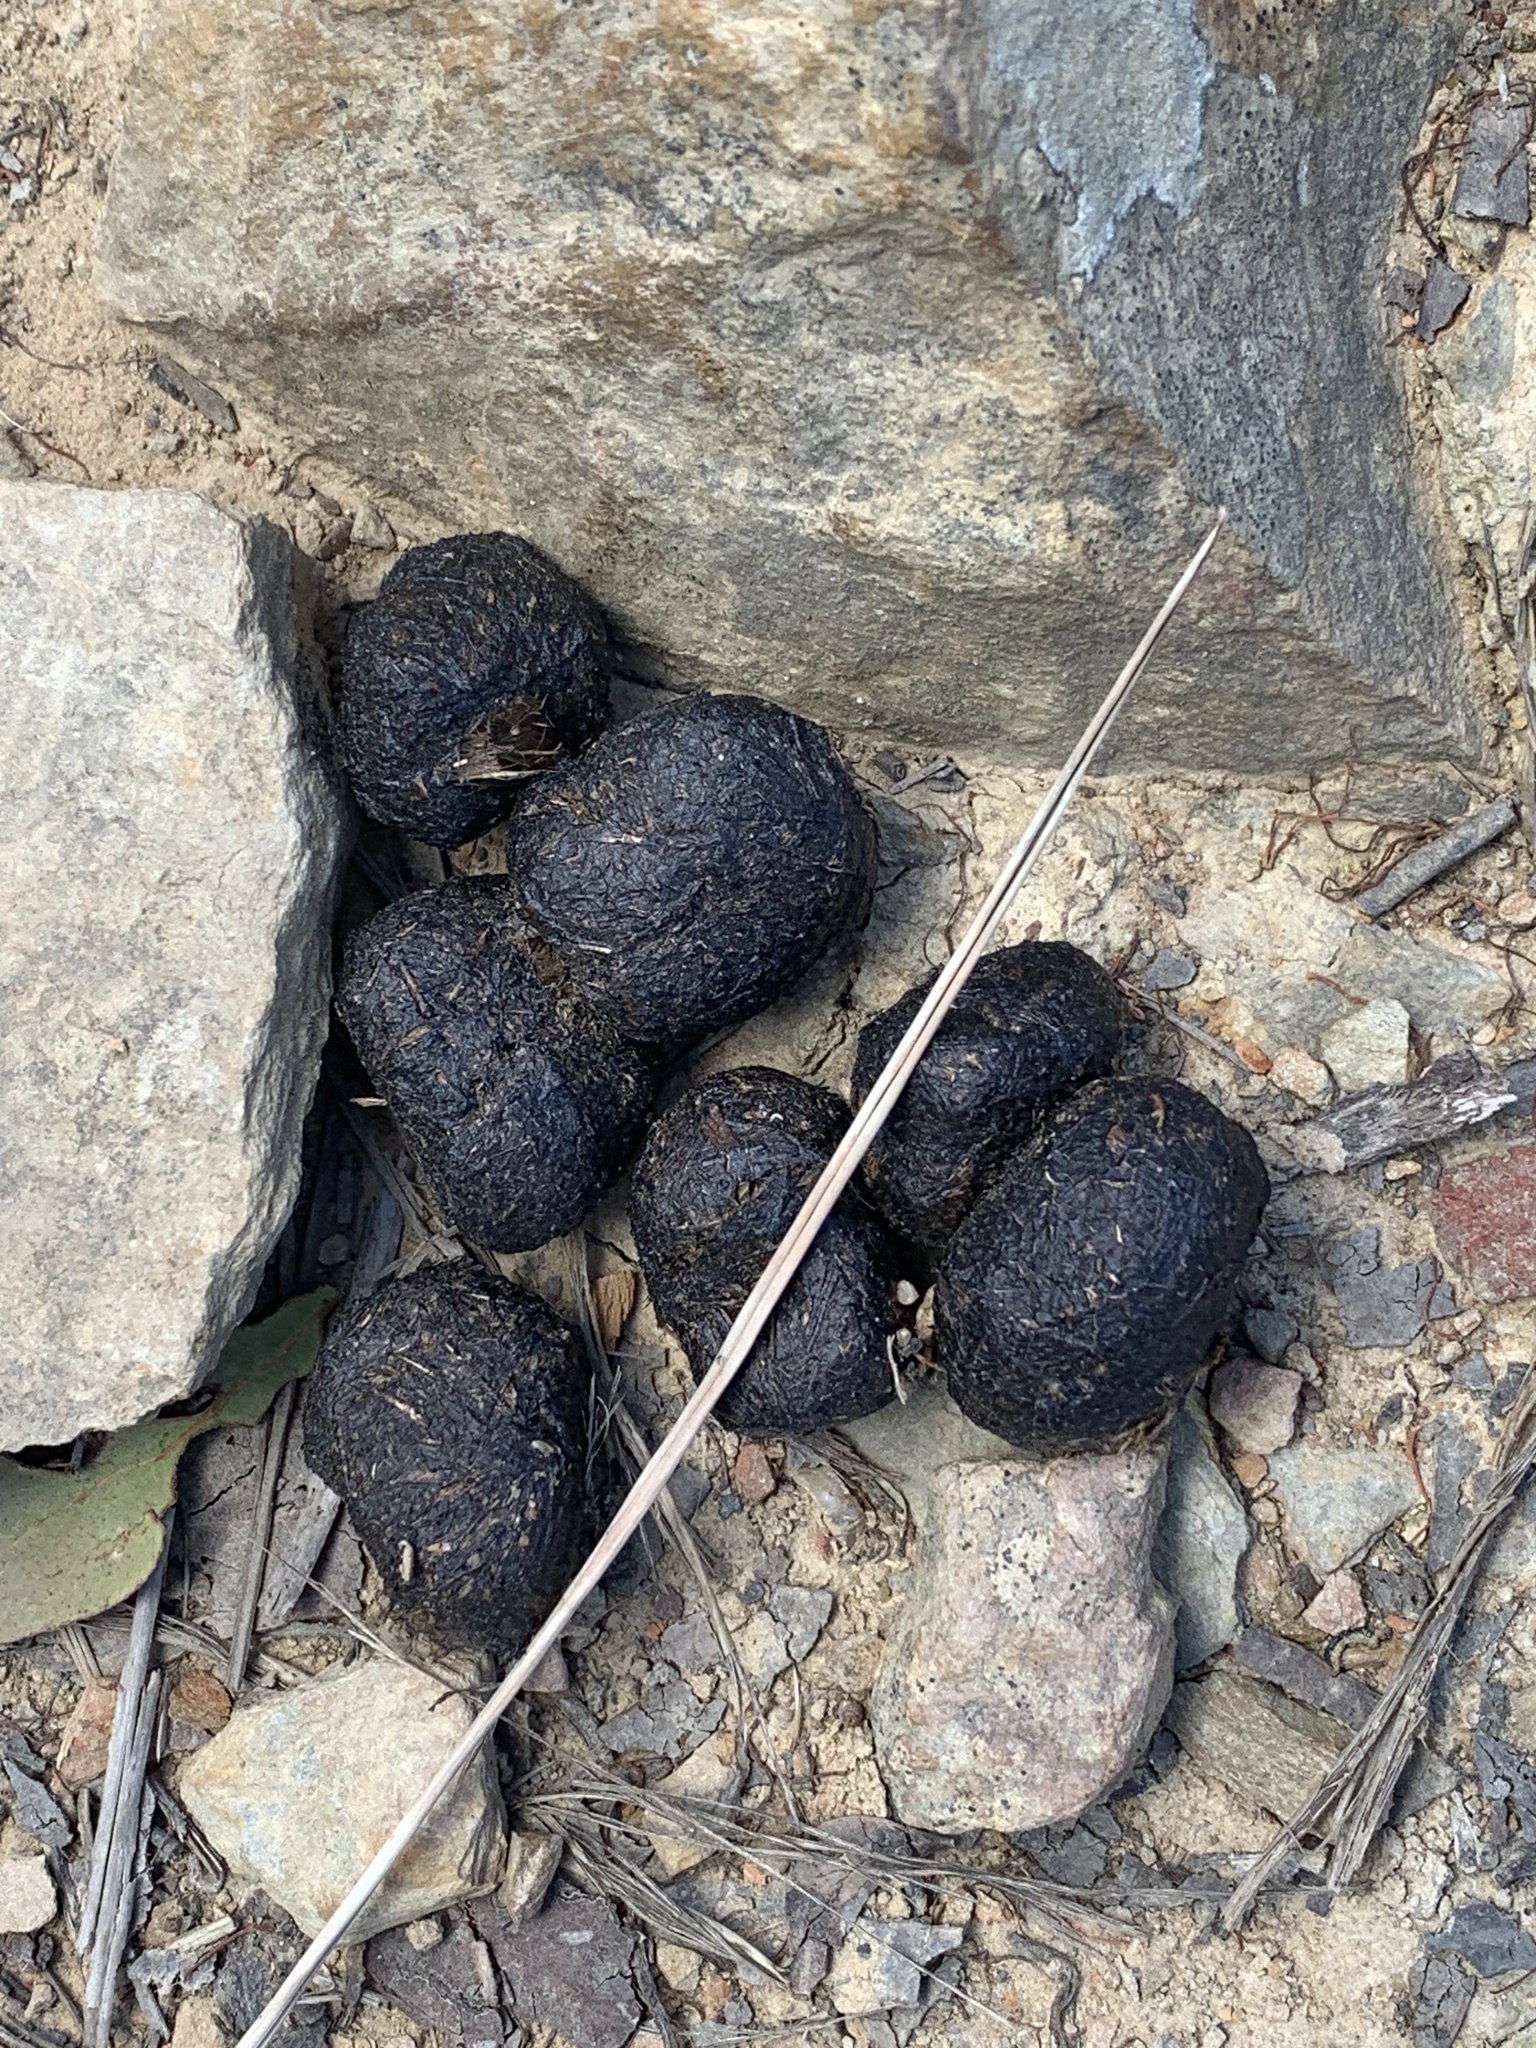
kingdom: Animalia
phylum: Chordata
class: Mammalia
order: Diprotodontia
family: Vombatidae
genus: Vombatus
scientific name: Vombatus ursinus
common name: Common wombat
